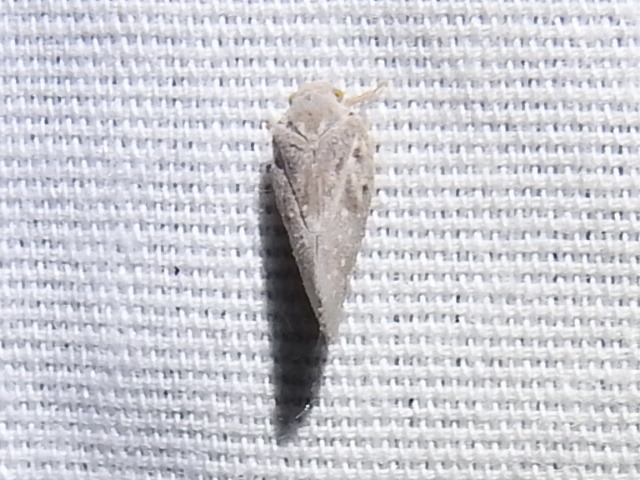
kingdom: Animalia
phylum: Arthropoda
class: Insecta
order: Hemiptera
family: Flatidae
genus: Metcalfa
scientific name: Metcalfa pruinosa
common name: Citrus flatid planthopper
